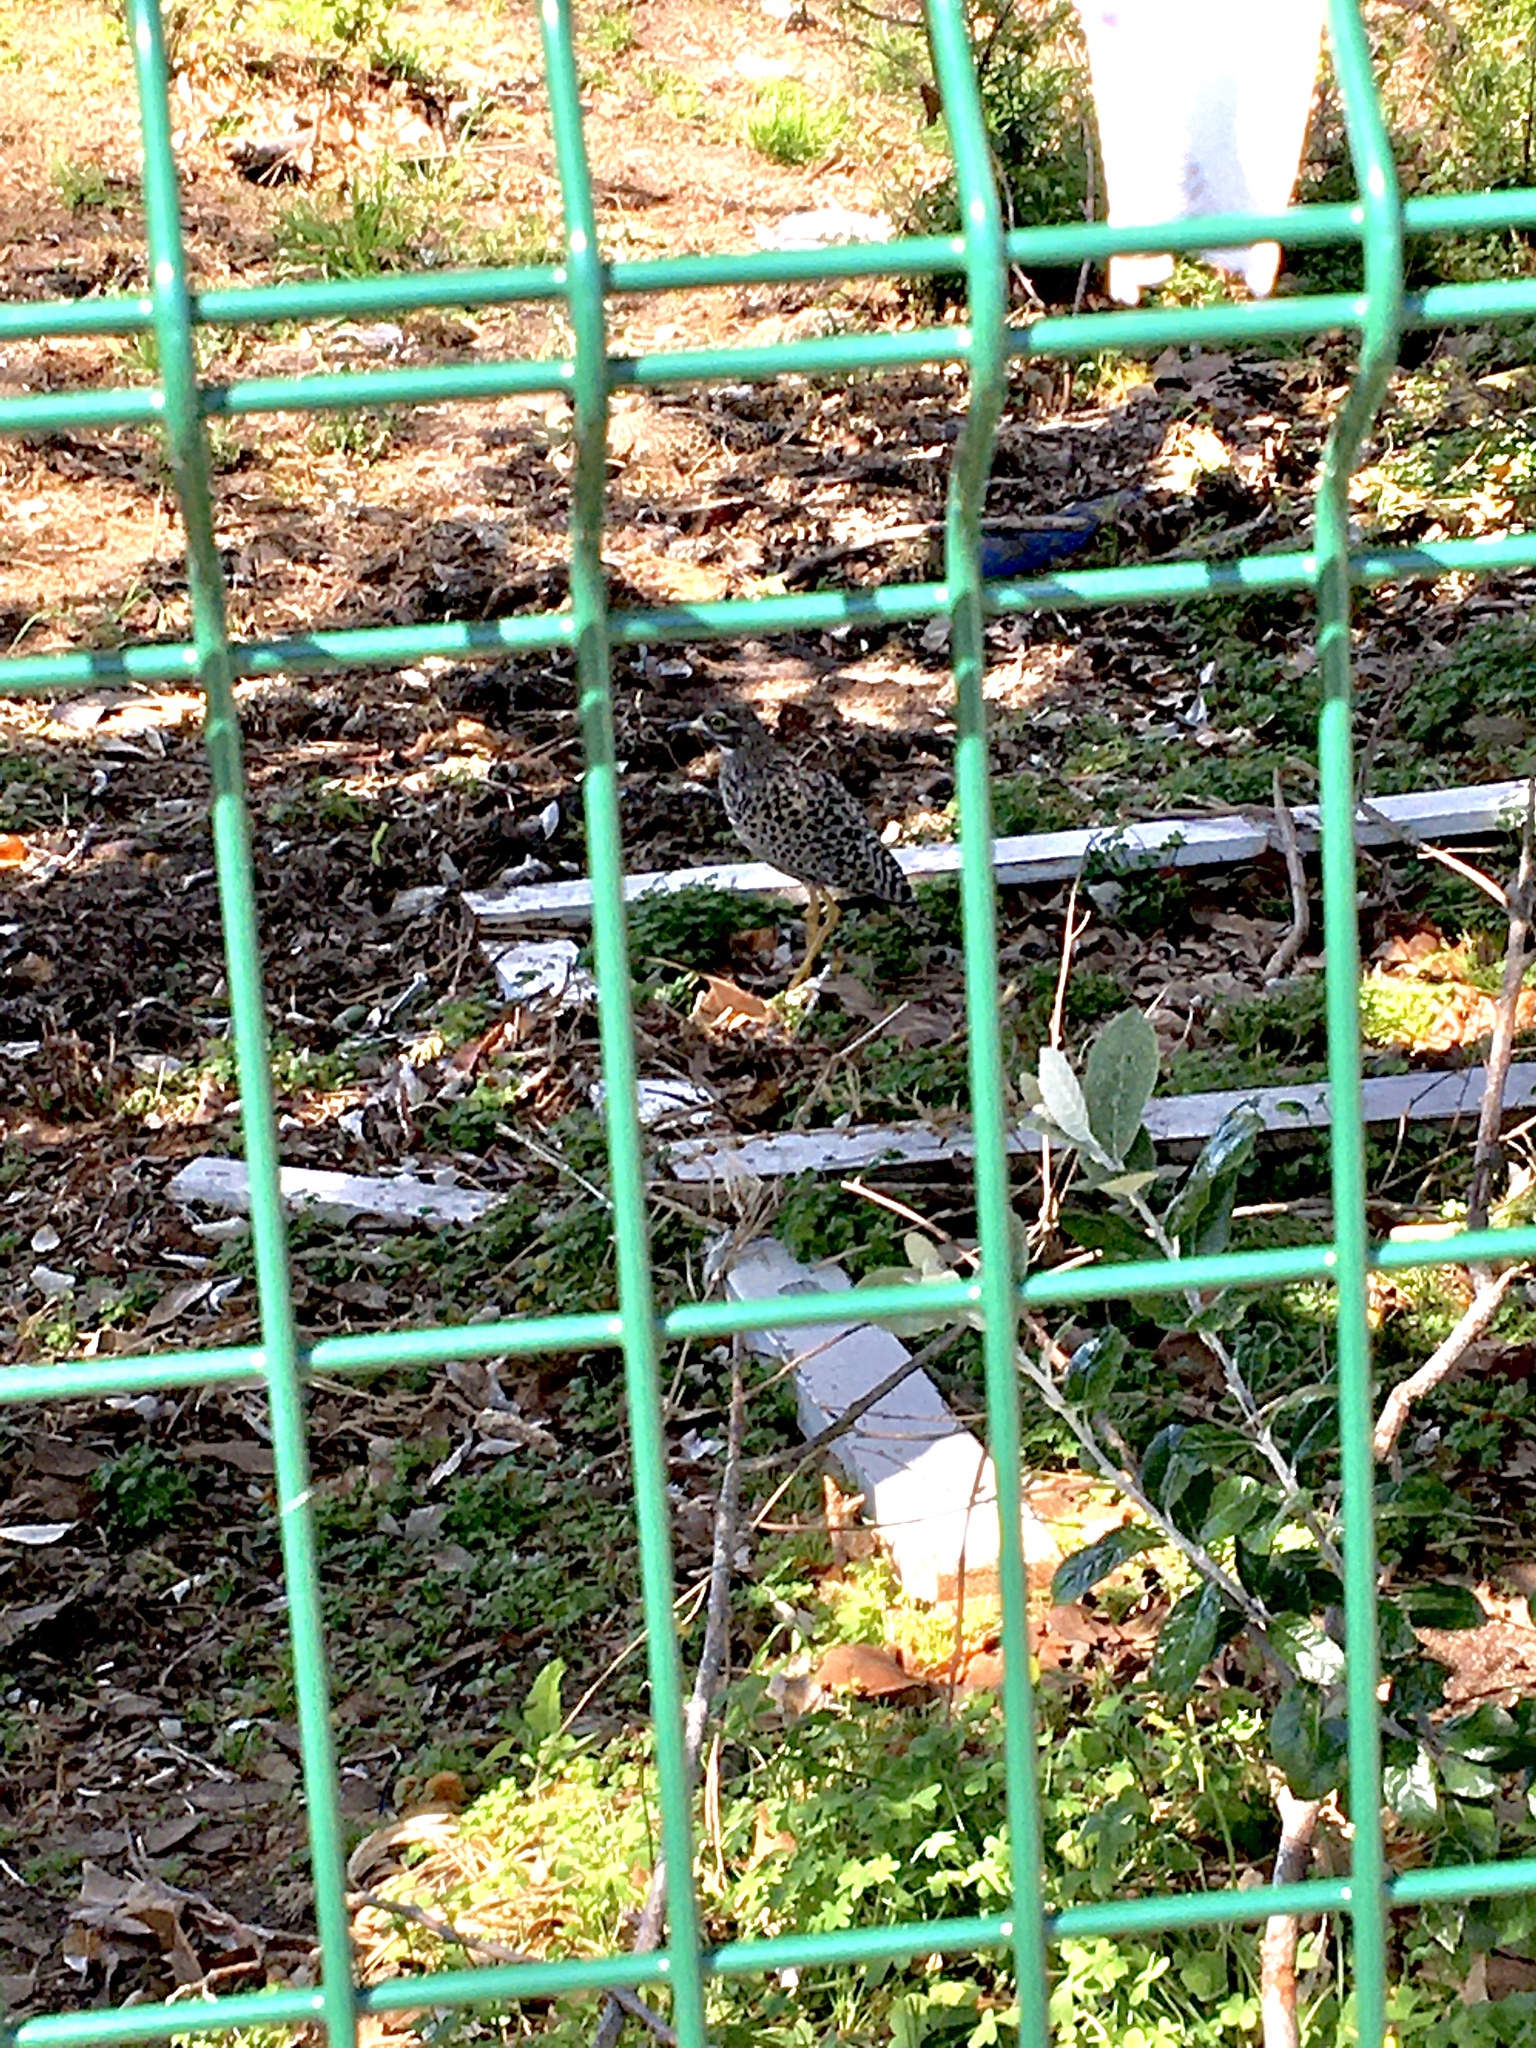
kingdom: Animalia
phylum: Chordata
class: Aves
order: Charadriiformes
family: Burhinidae
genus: Burhinus
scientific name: Burhinus capensis
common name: Spotted thick-knee
